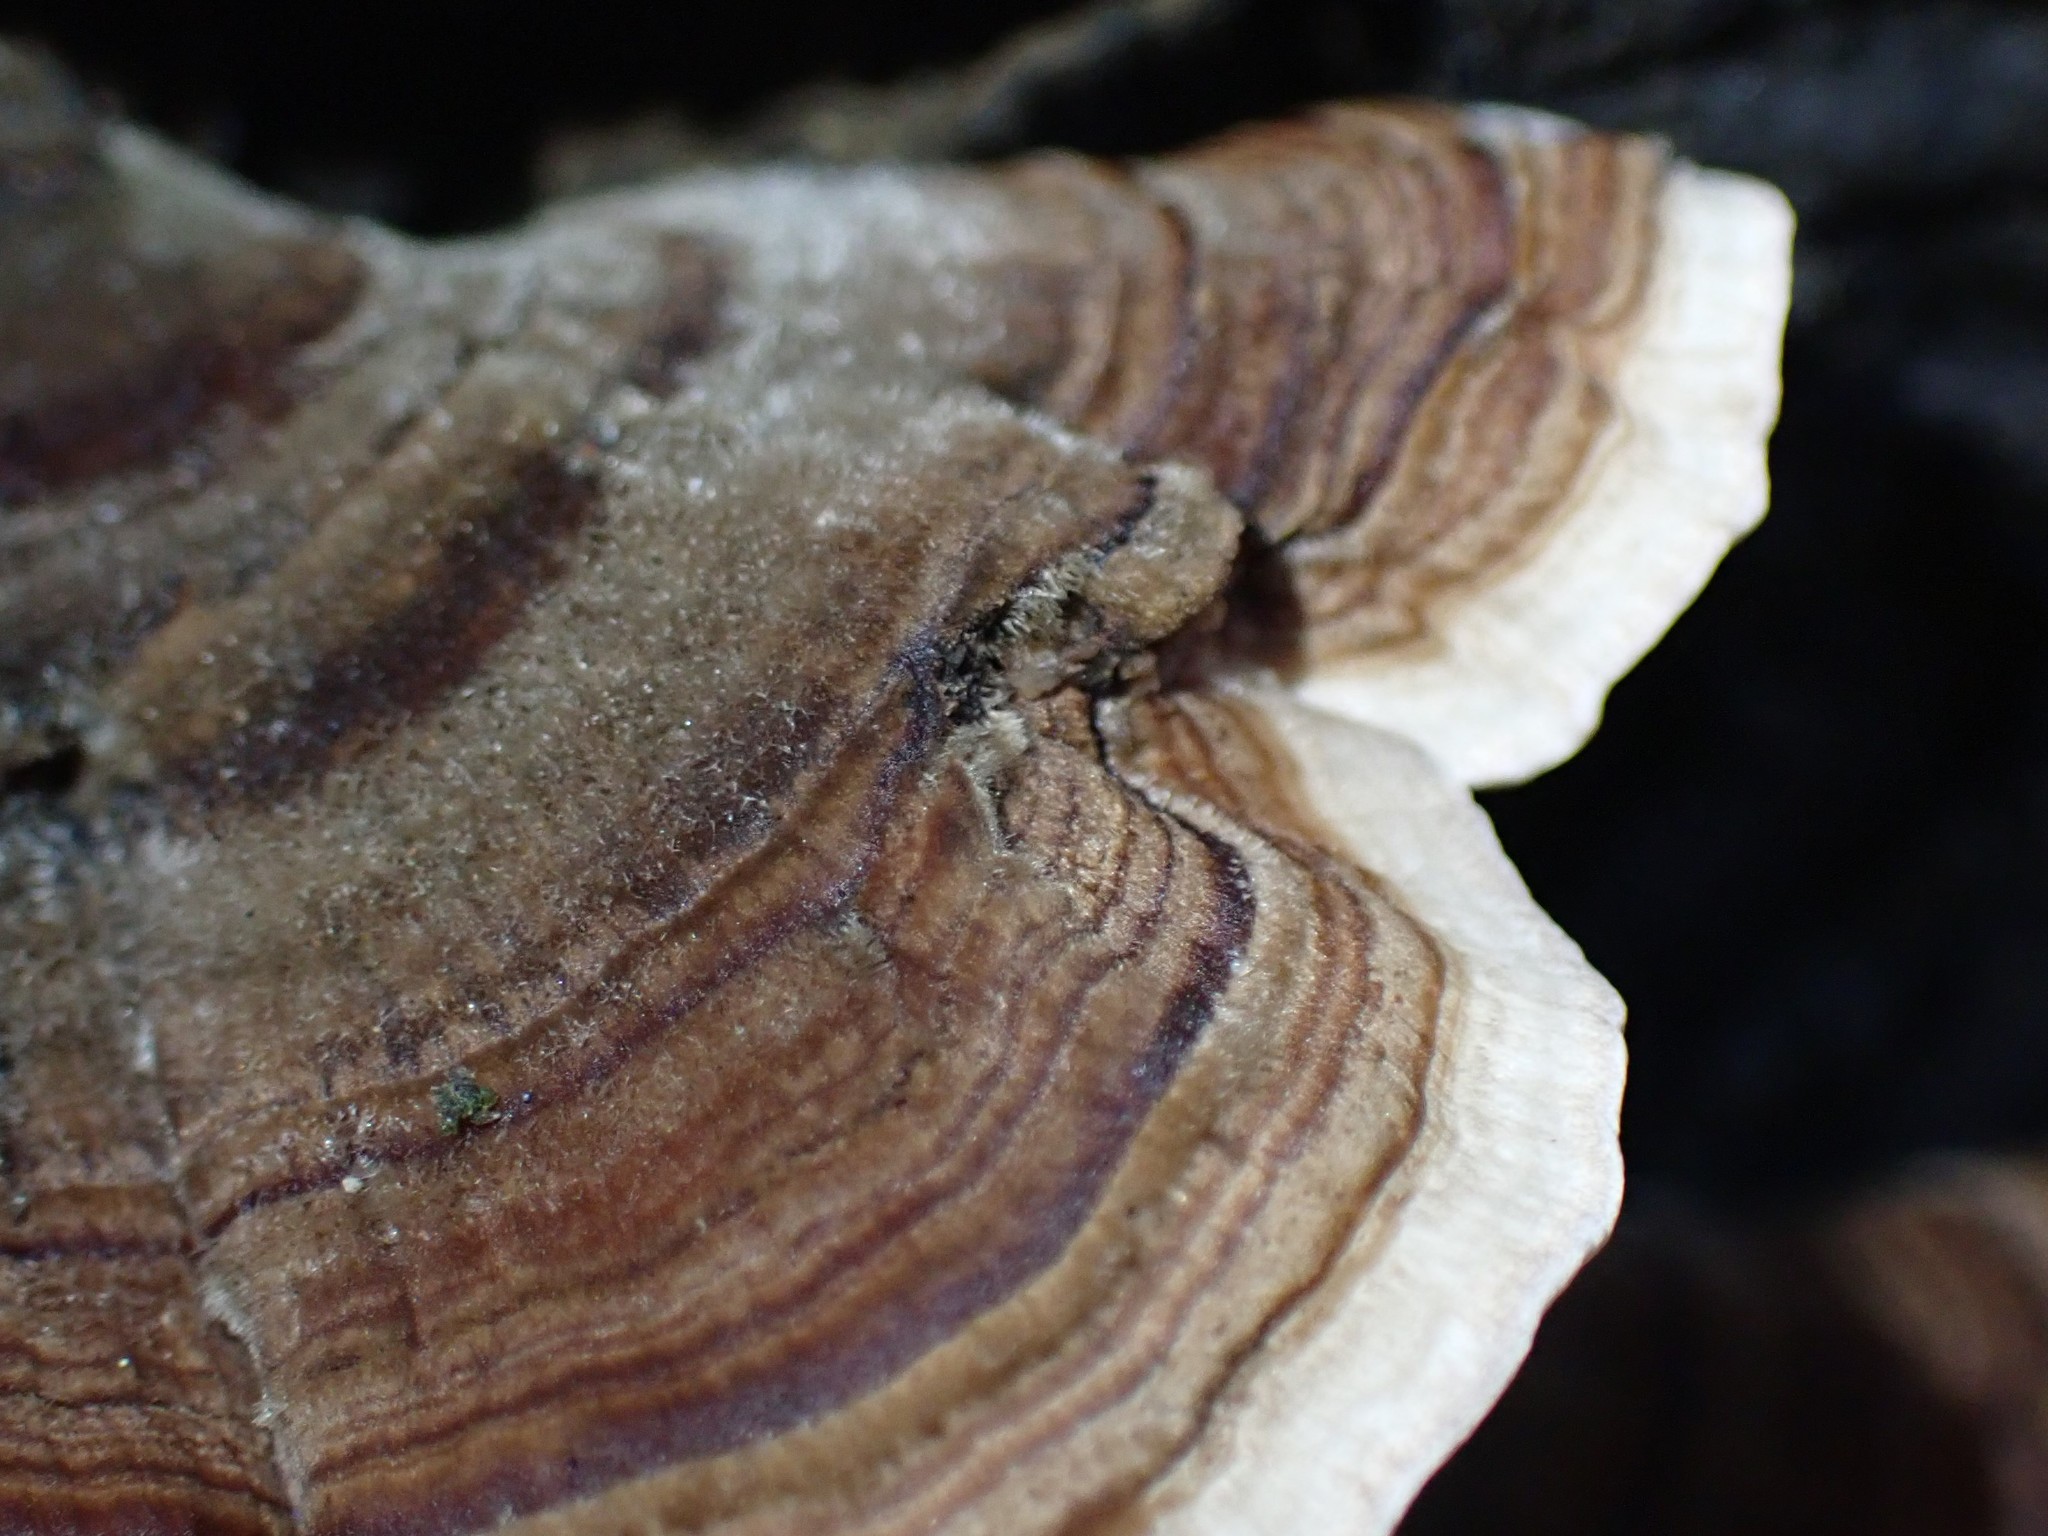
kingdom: Fungi
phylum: Basidiomycota
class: Agaricomycetes
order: Polyporales
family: Polyporaceae
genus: Trametes
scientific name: Trametes versicolor
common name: Turkeytail
